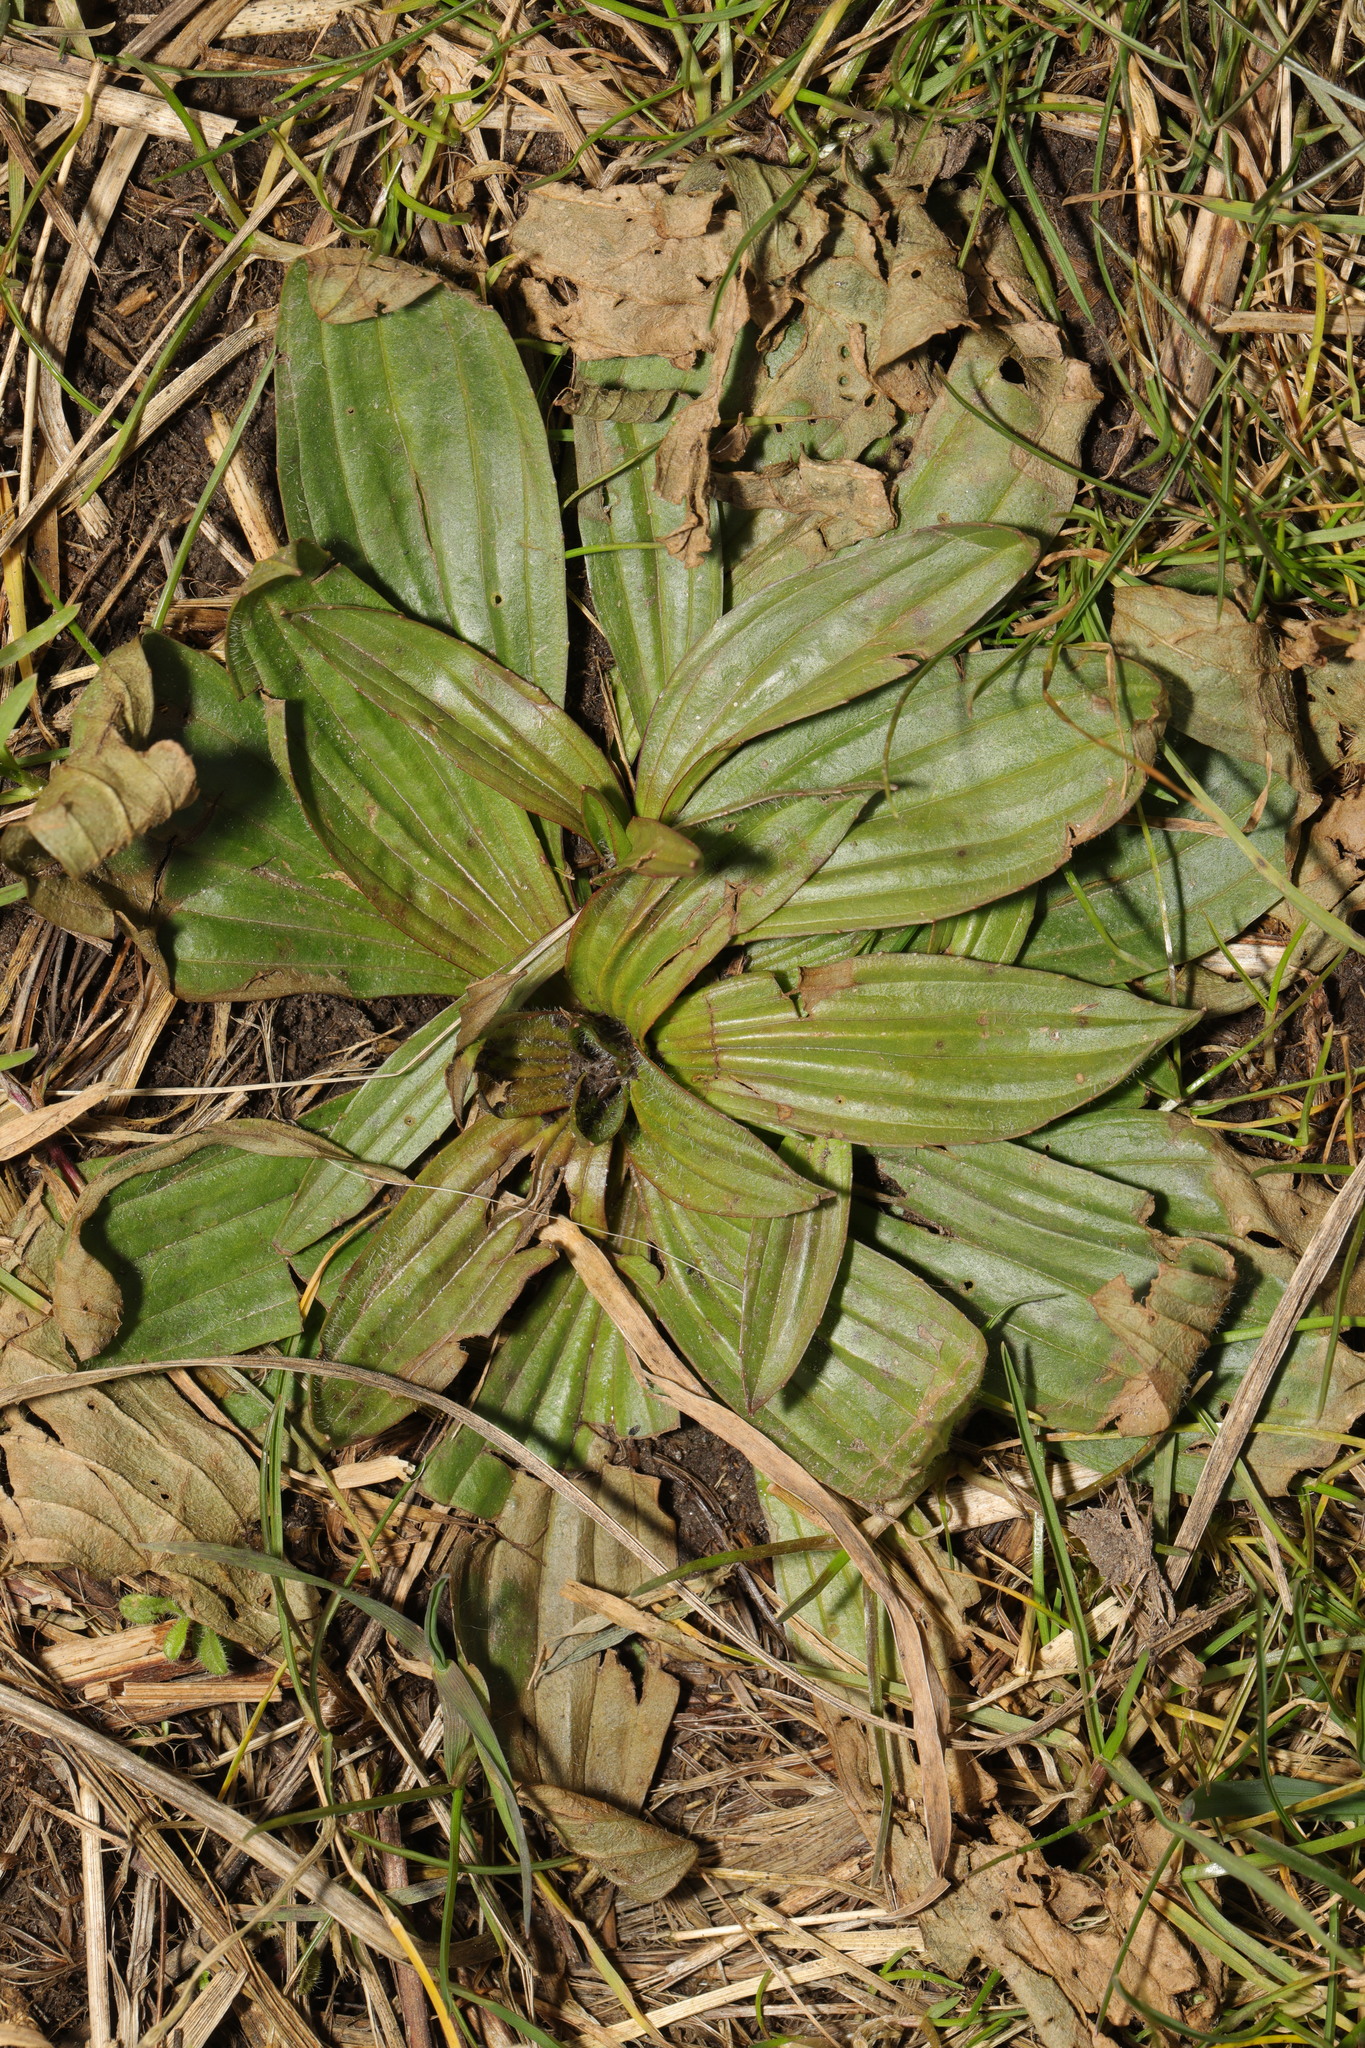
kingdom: Plantae
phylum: Tracheophyta
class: Magnoliopsida
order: Lamiales
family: Plantaginaceae
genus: Plantago
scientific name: Plantago lanceolata
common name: Ribwort plantain
